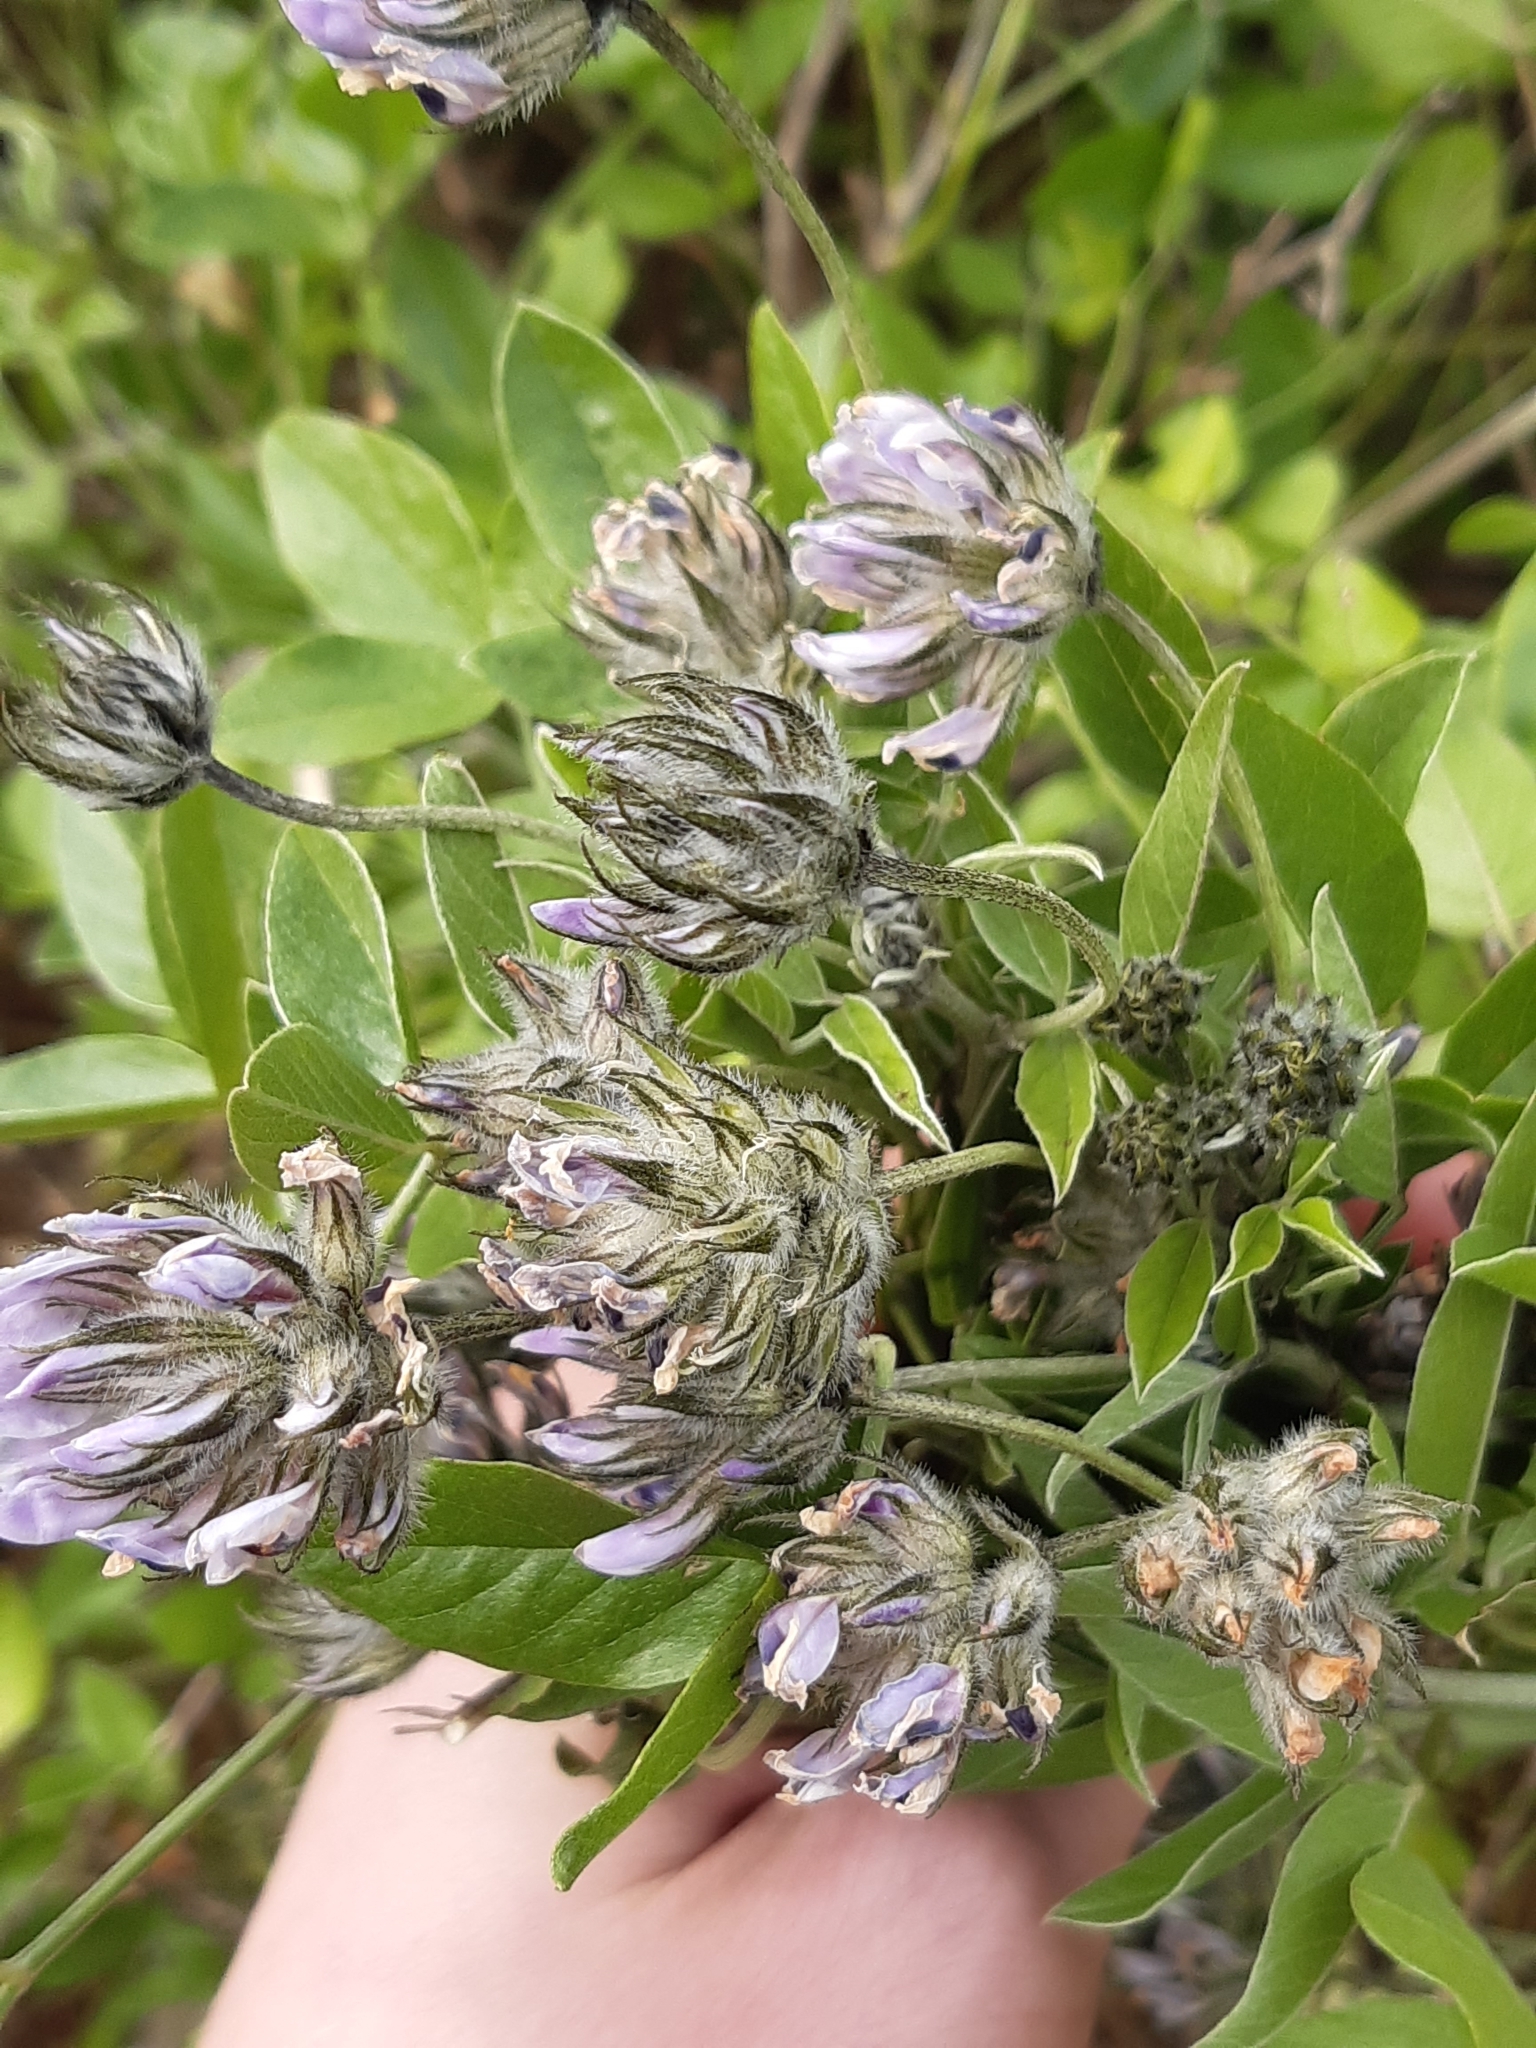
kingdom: Plantae
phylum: Tracheophyta
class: Magnoliopsida
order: Fabales
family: Fabaceae
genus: Bituminaria
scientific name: Bituminaria bituminosa
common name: Arabian pea
